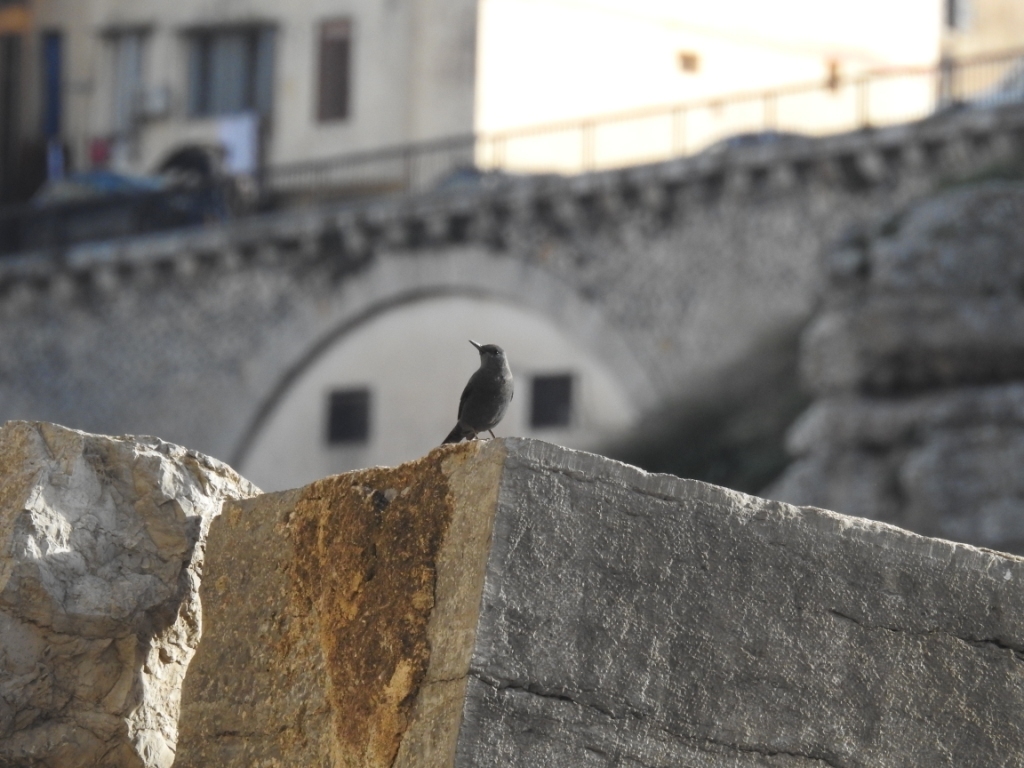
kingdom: Animalia
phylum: Chordata
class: Aves
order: Passeriformes
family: Muscicapidae
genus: Monticola
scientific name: Monticola solitarius
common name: Blue rock thrush
